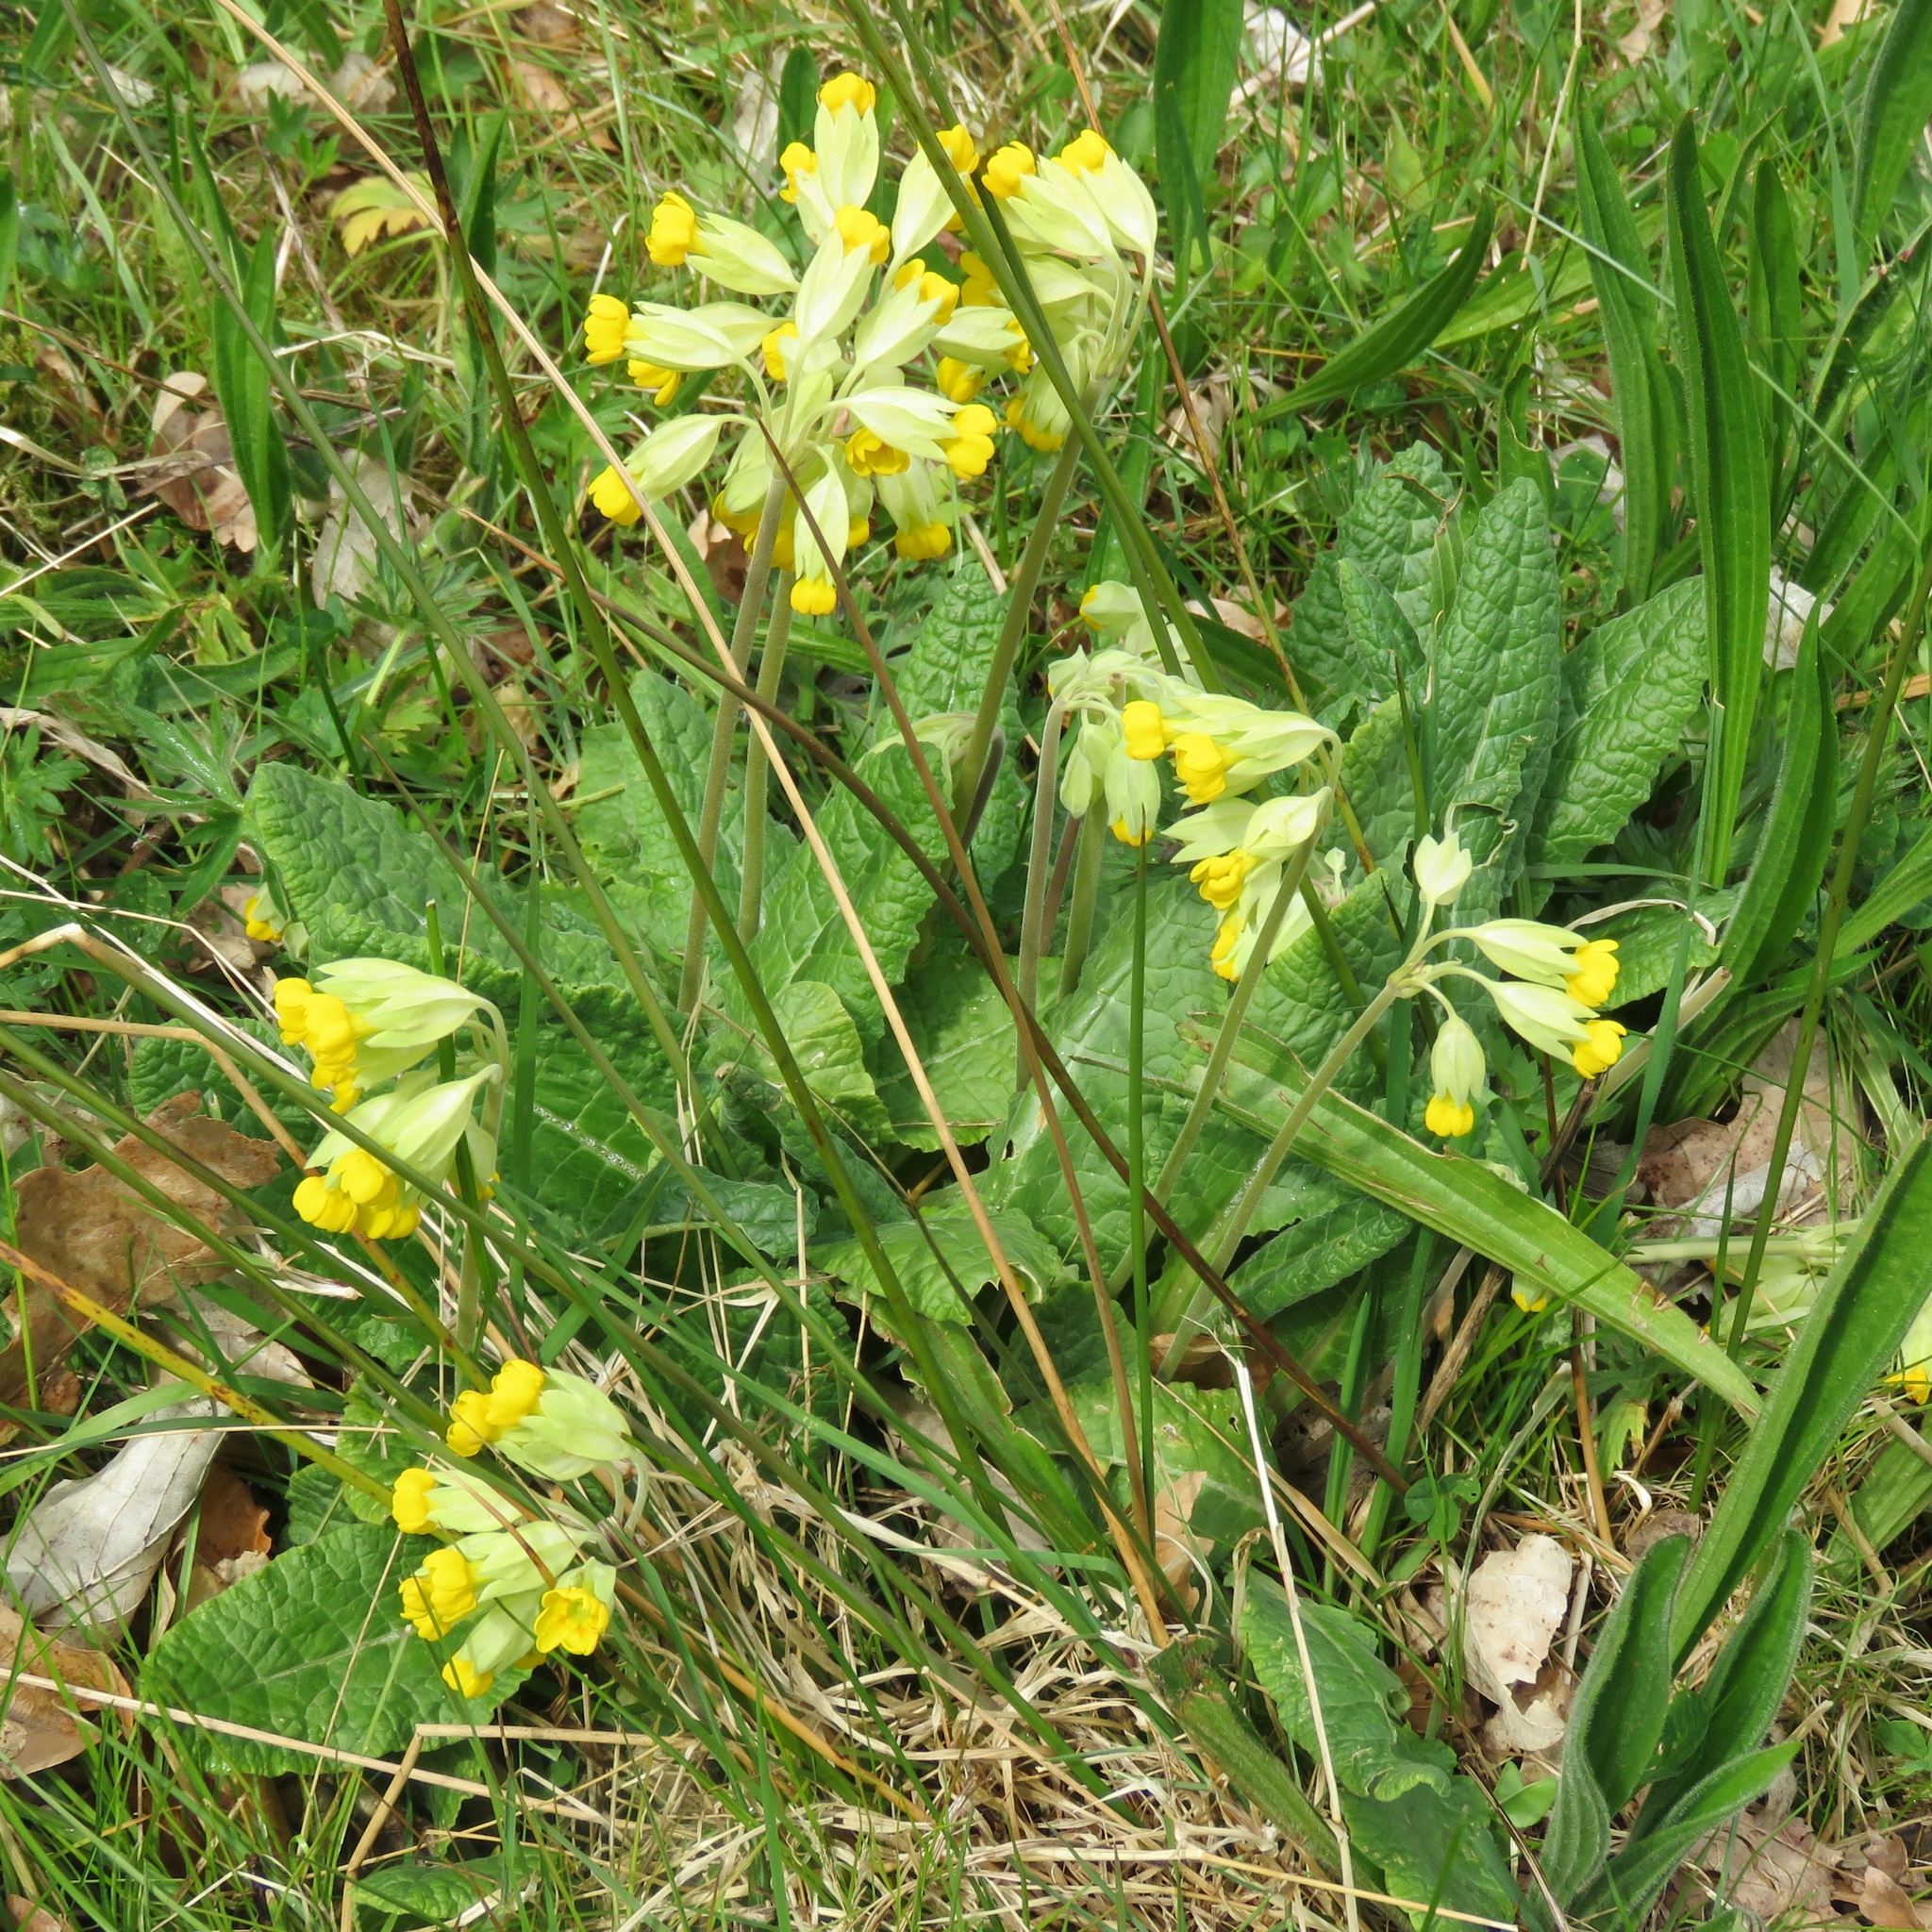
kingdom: Plantae
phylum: Tracheophyta
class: Magnoliopsida
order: Ericales
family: Primulaceae
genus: Primula
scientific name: Primula veris
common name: Cowslip
